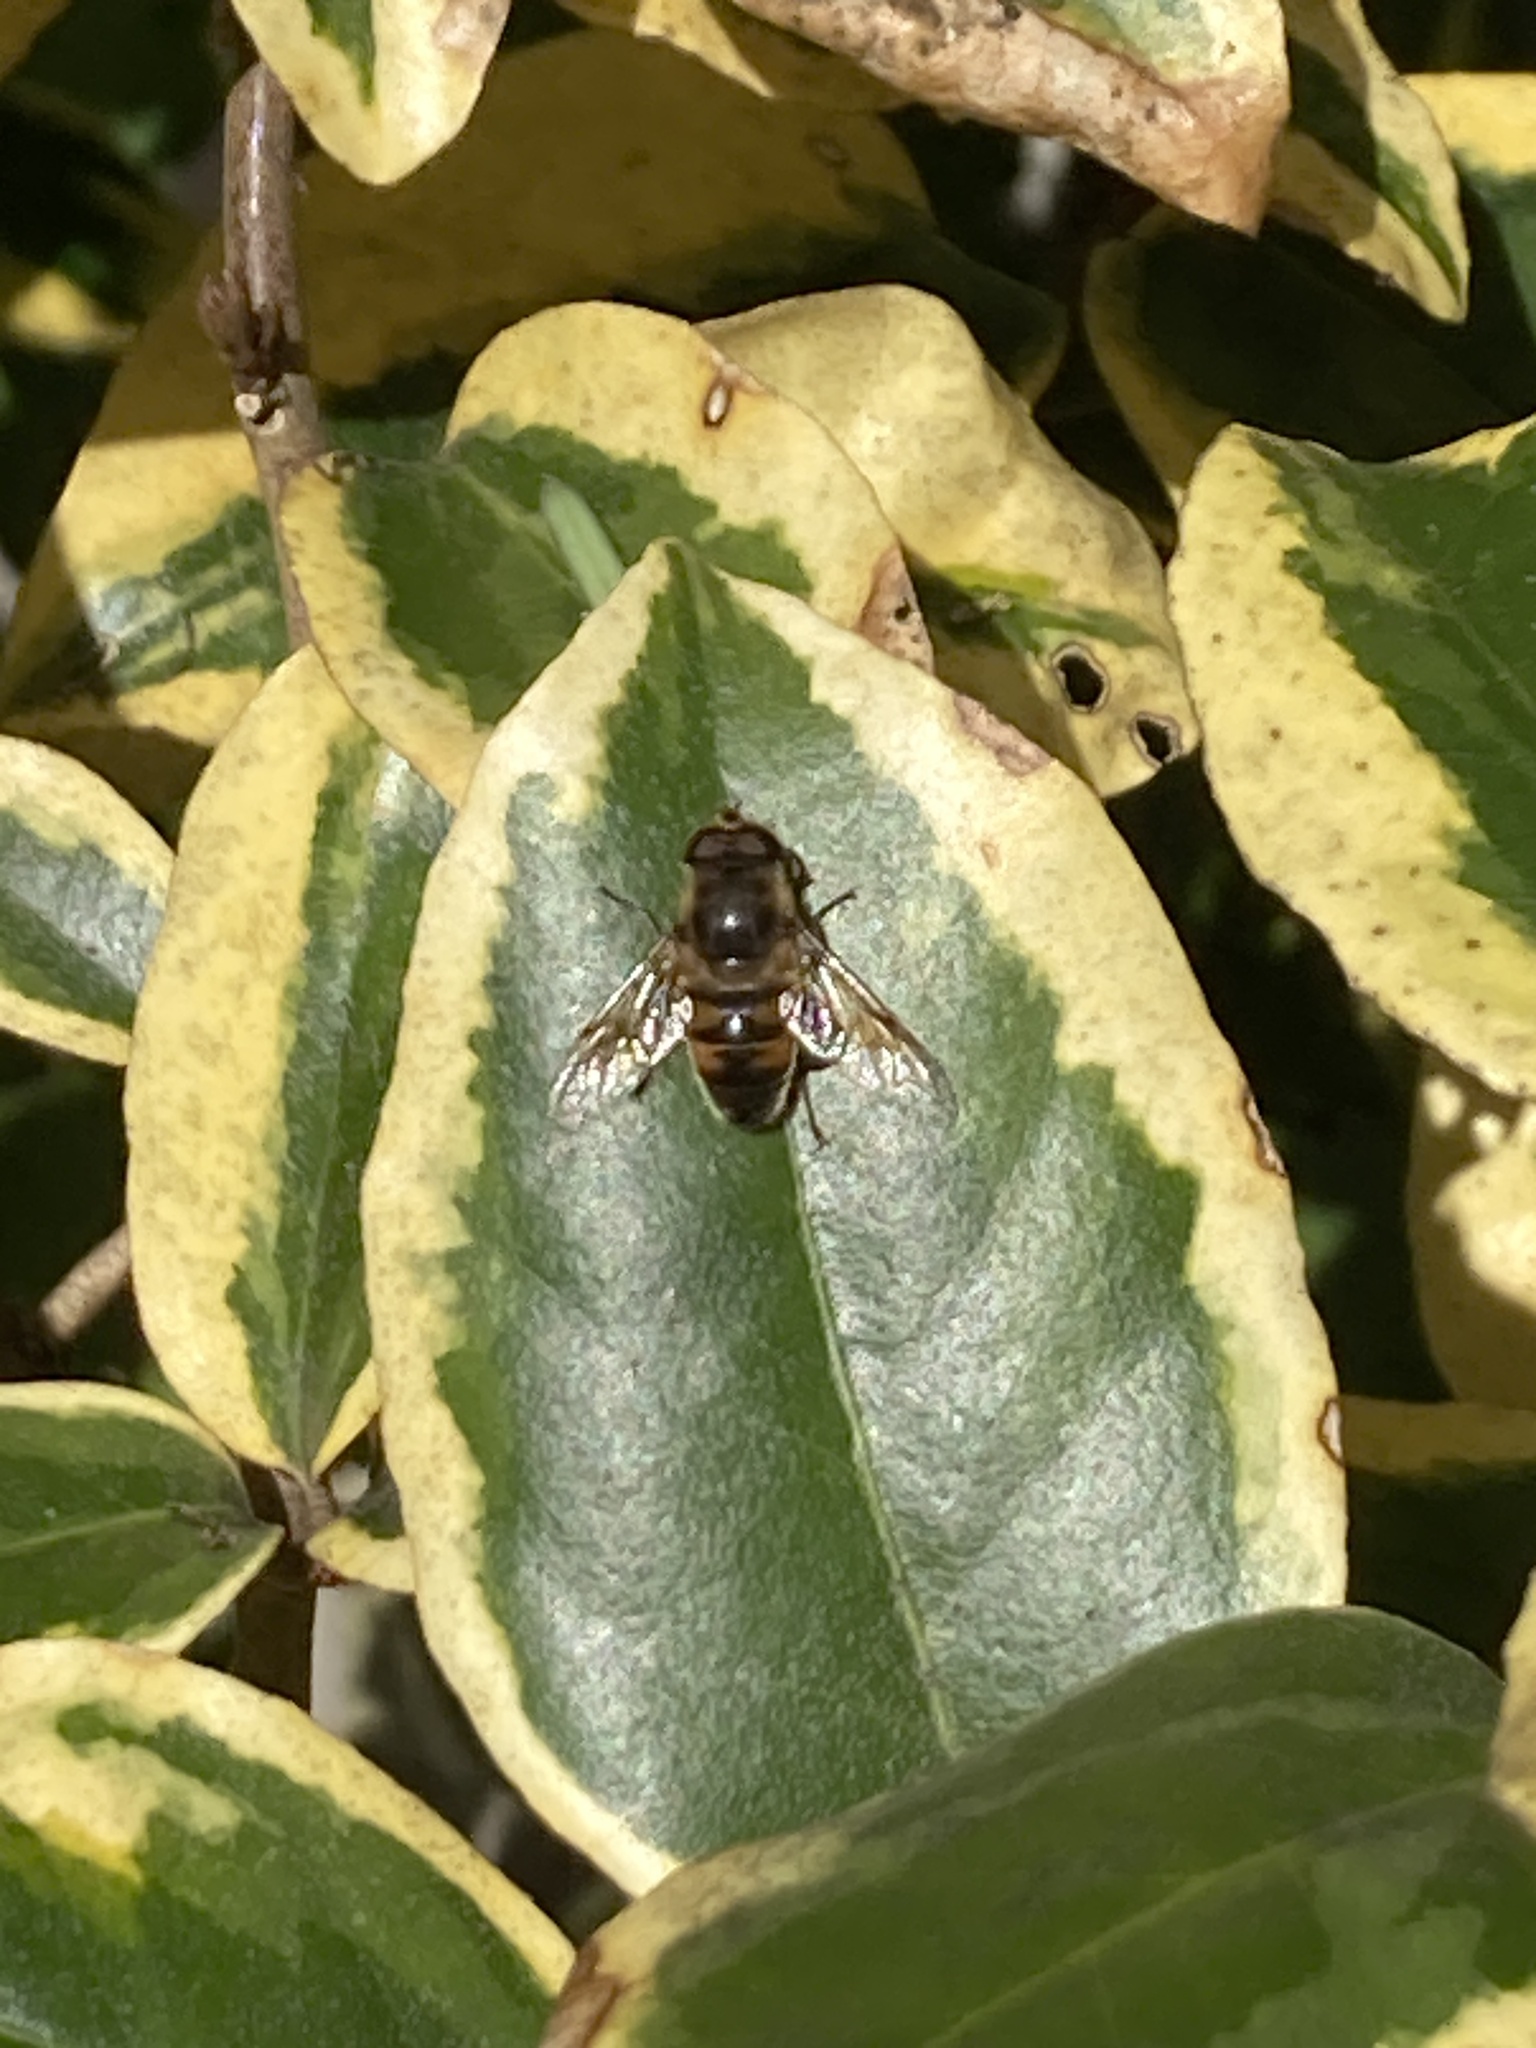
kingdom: Animalia
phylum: Arthropoda
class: Insecta
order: Diptera
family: Syrphidae
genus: Eristalis
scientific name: Eristalis tenax
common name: Drone fly
